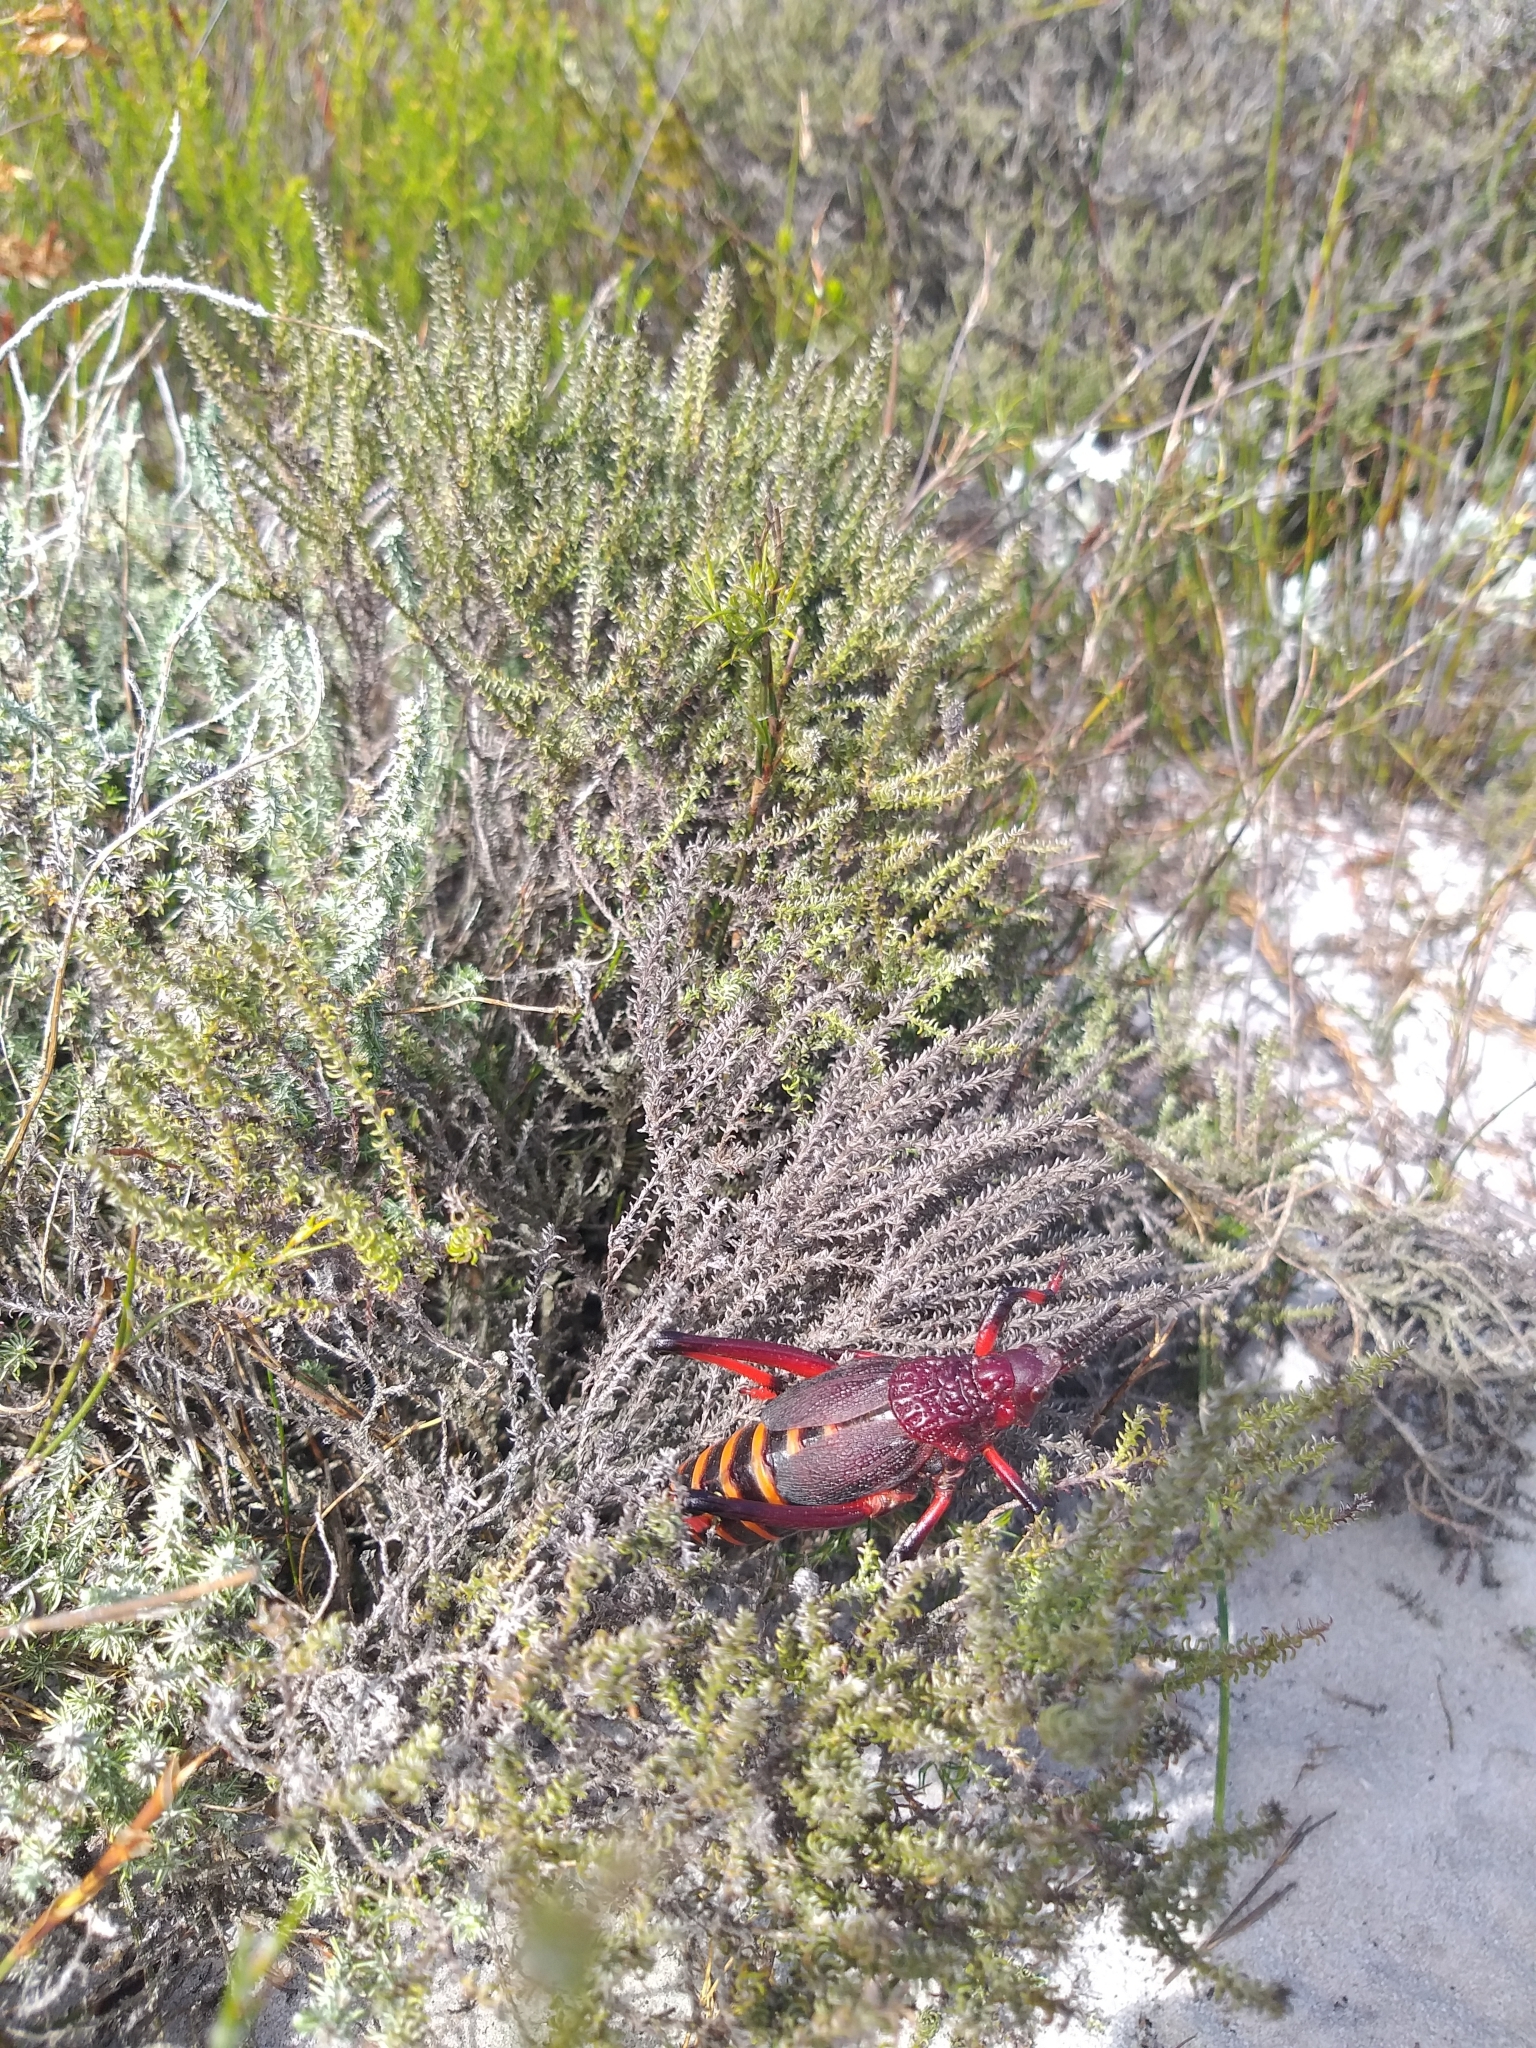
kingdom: Animalia
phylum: Arthropoda
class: Insecta
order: Orthoptera
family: Pyrgomorphidae
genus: Dictyophorus
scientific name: Dictyophorus spumans
